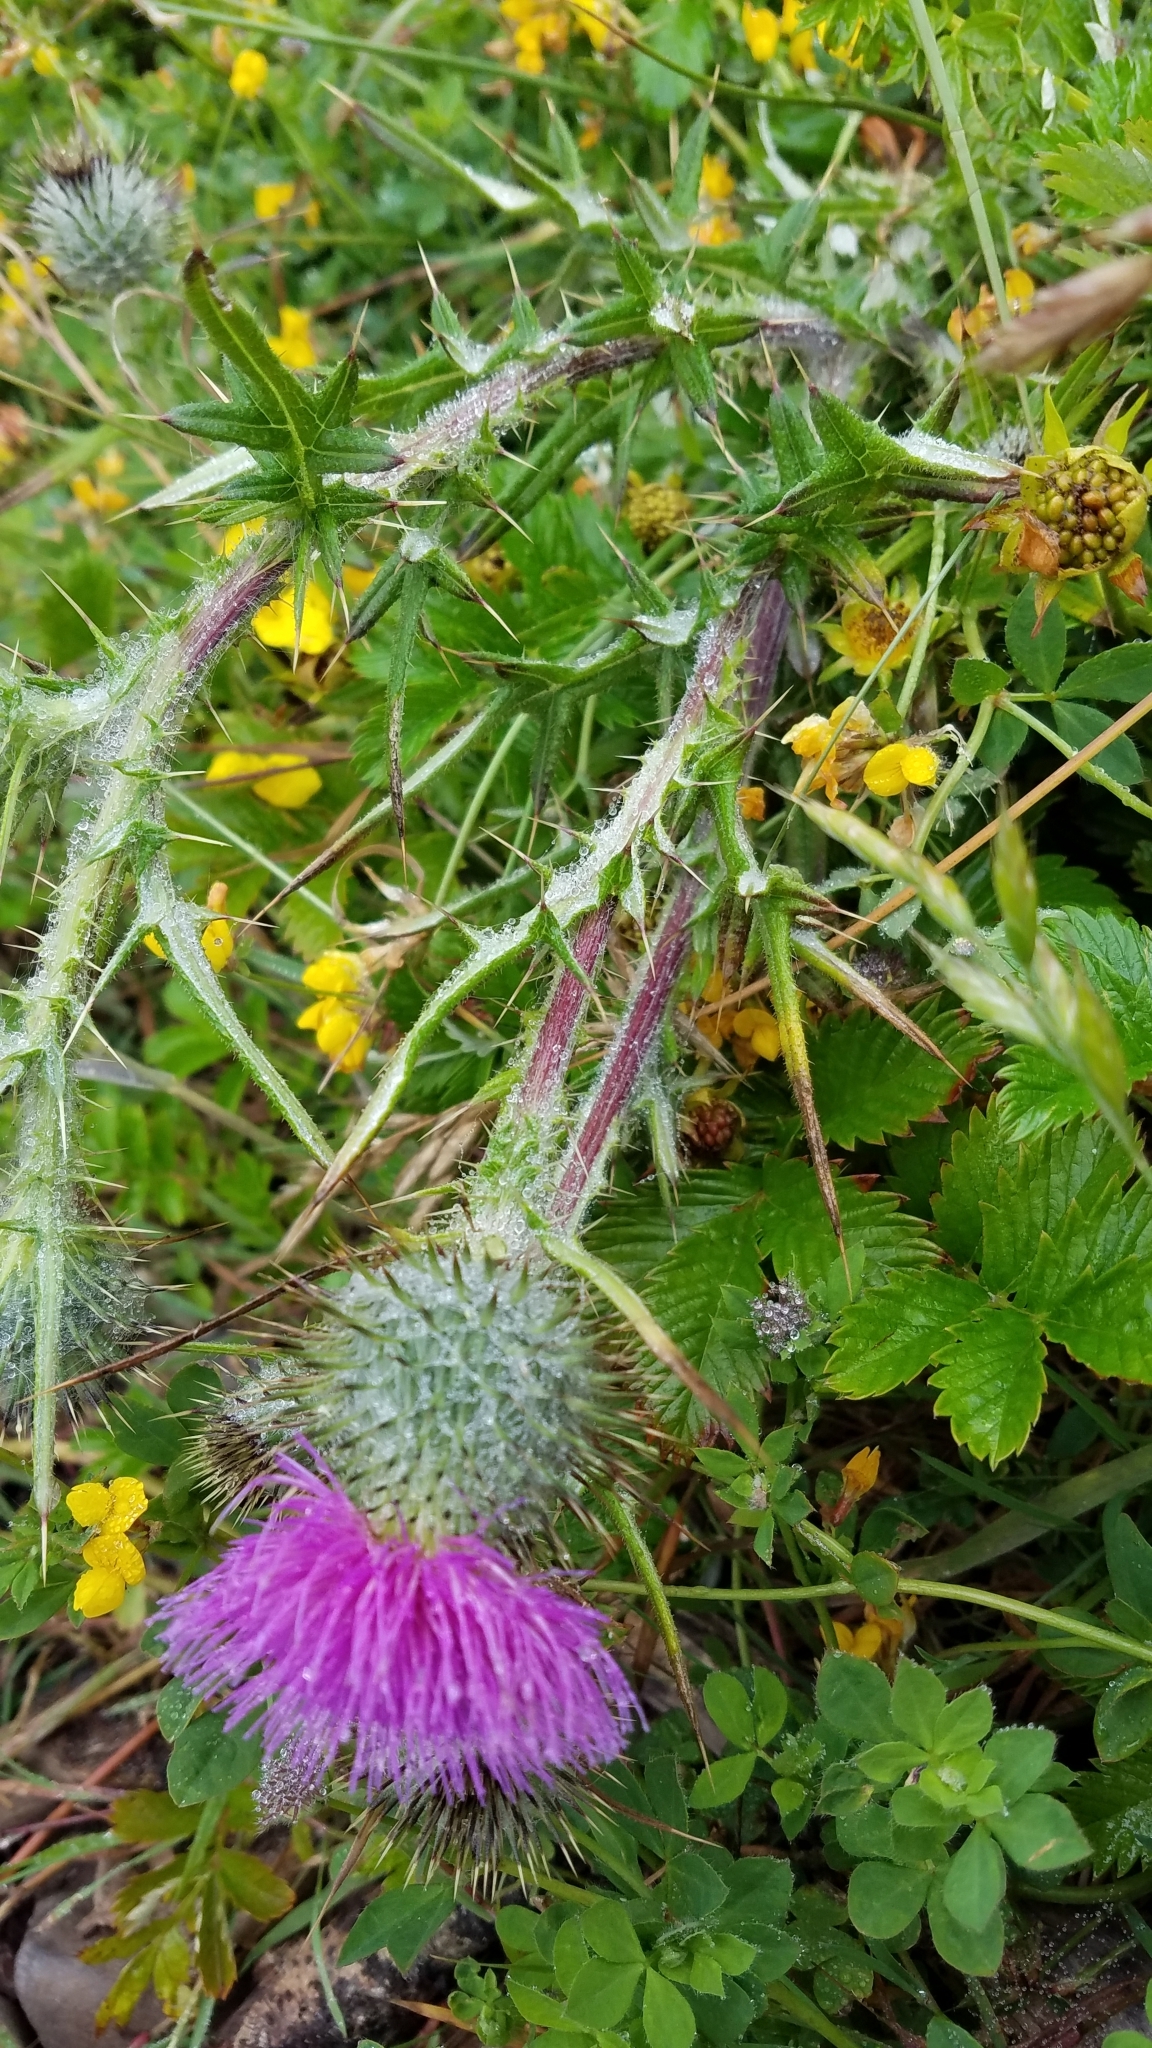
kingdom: Plantae
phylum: Tracheophyta
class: Magnoliopsida
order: Asterales
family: Asteraceae
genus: Cirsium
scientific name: Cirsium vulgare
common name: Bull thistle
